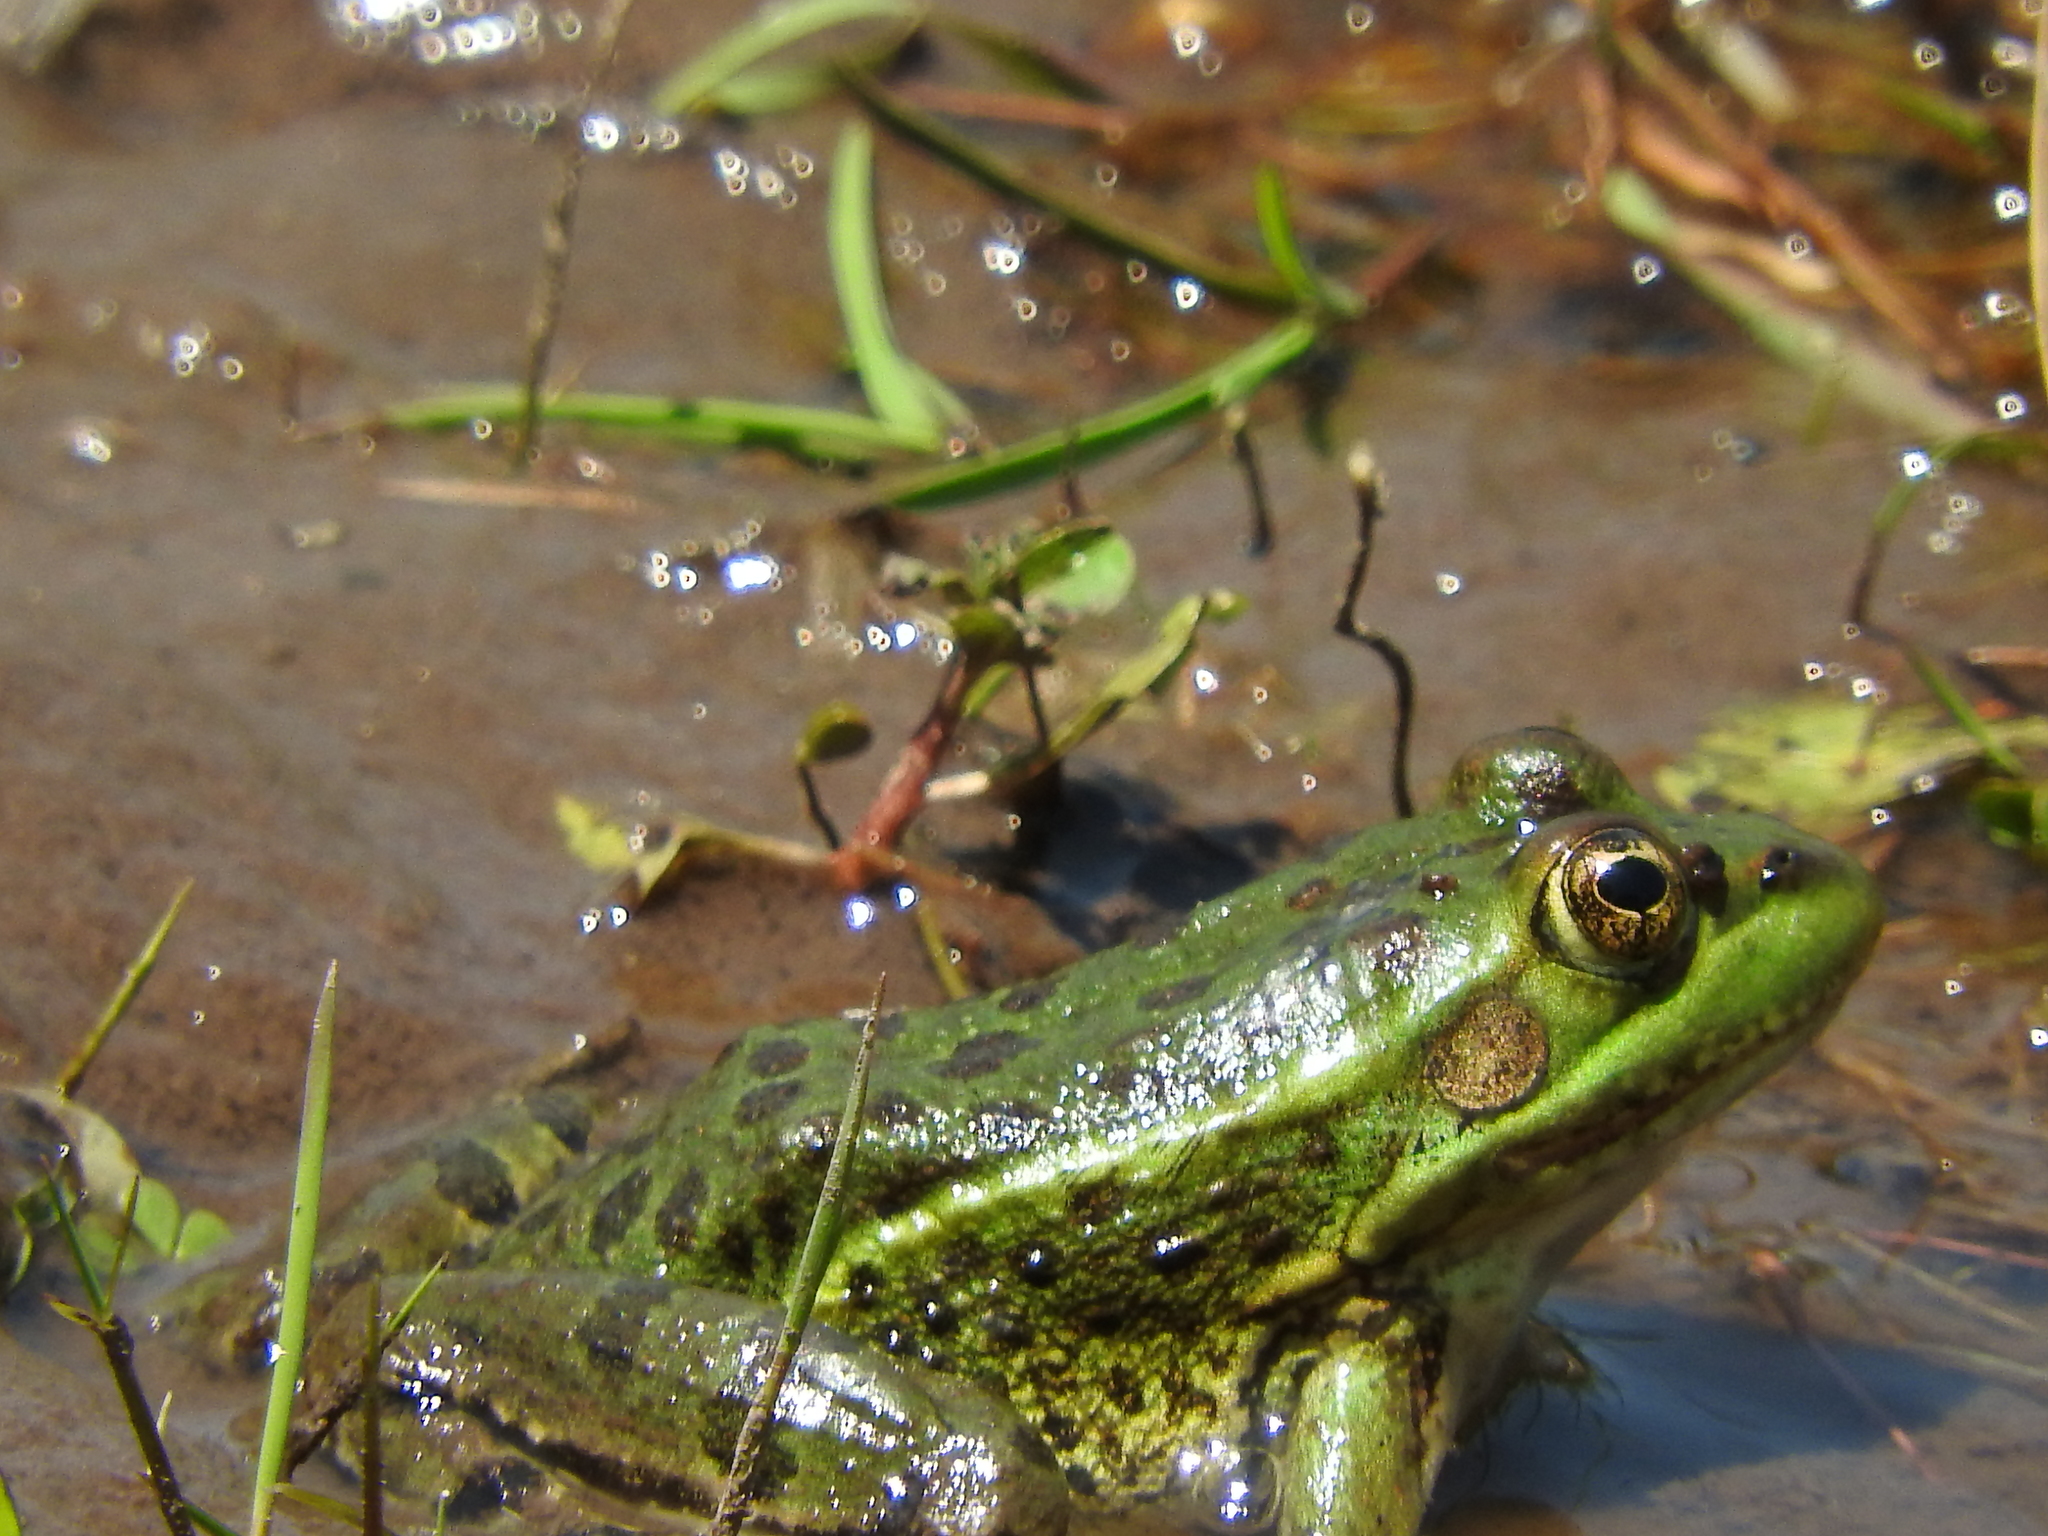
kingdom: Animalia
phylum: Chordata
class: Amphibia
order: Anura
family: Ranidae
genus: Lithobates
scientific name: Lithobates montezumae
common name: Montezuma leopard frog
